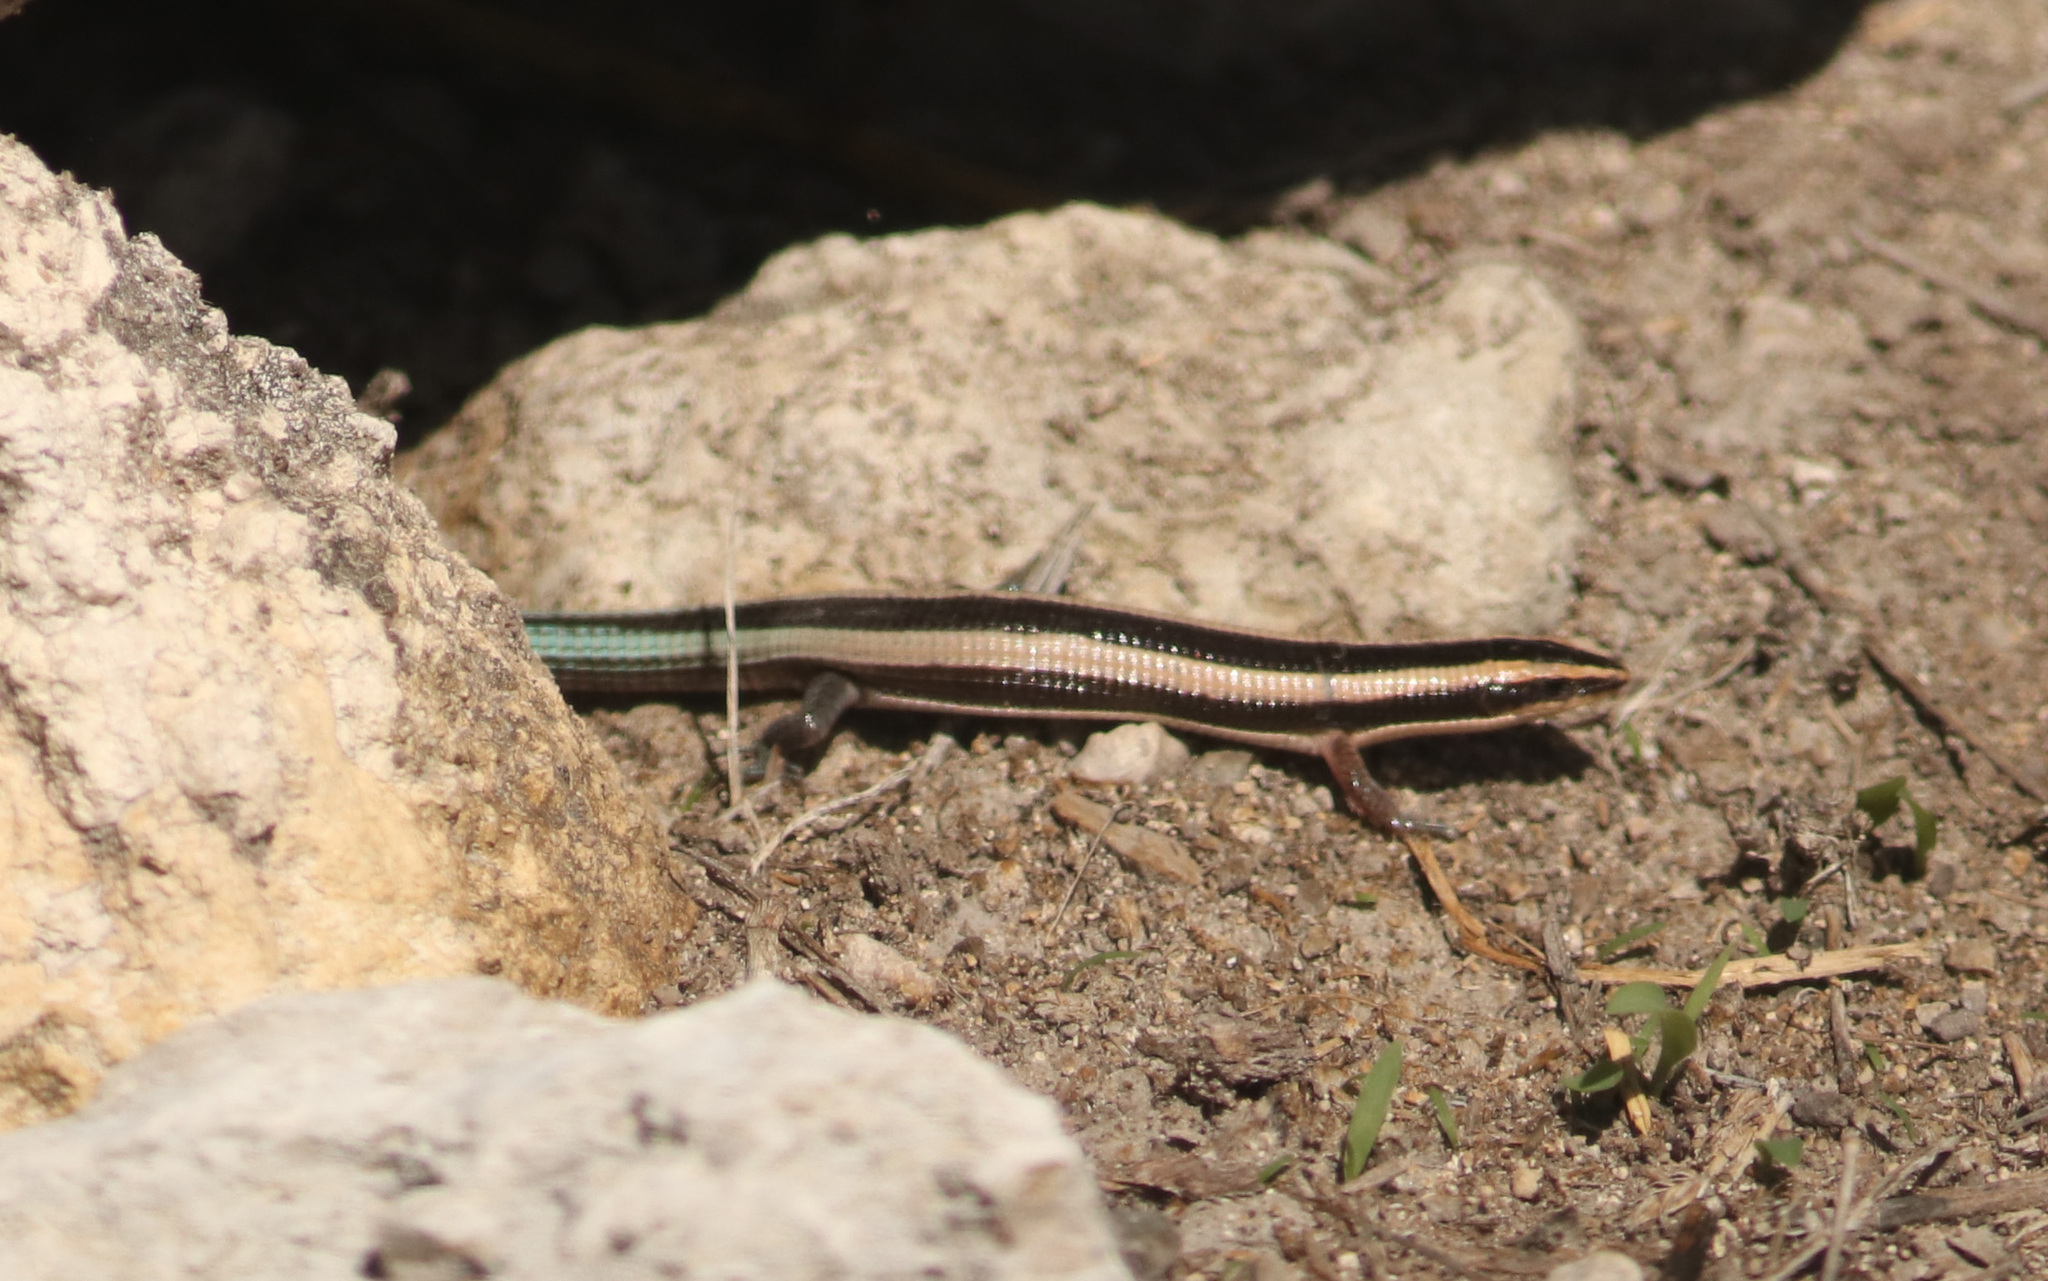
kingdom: Animalia
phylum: Chordata
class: Squamata
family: Gerrhosauridae
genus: Cordylosaurus
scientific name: Cordylosaurus subtessellatus
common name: Dwarf plated lizard
